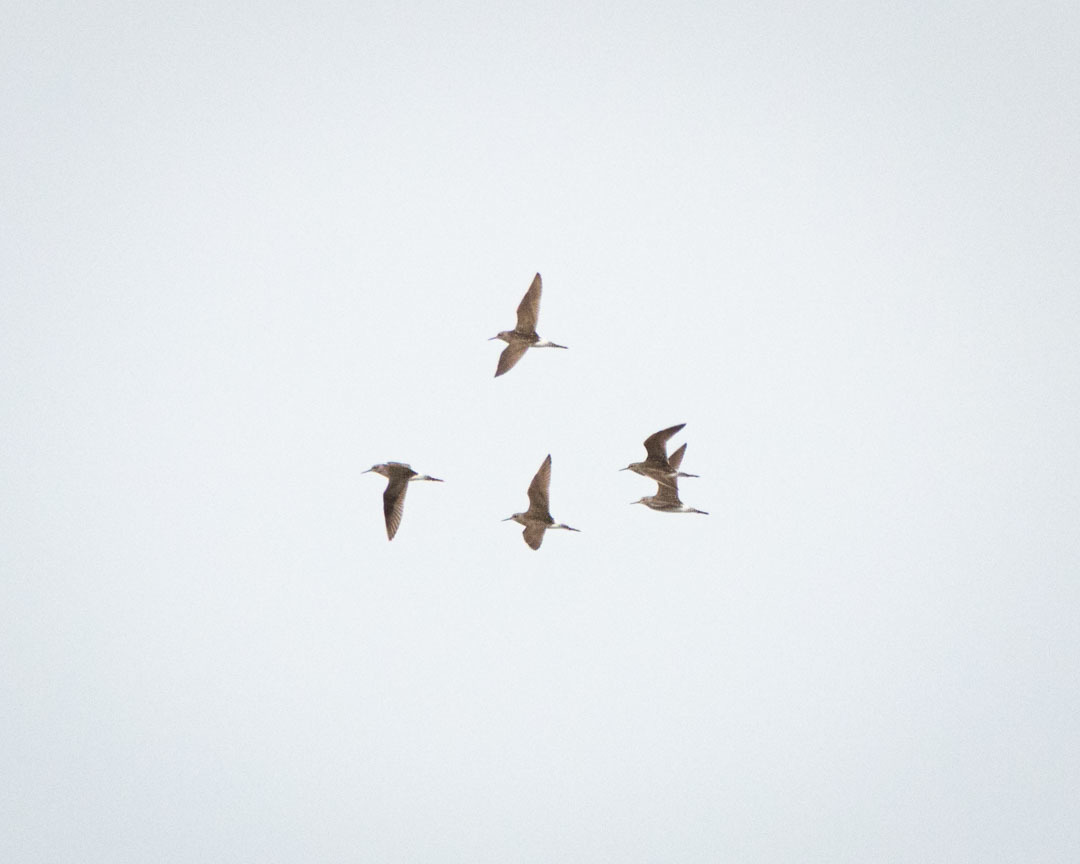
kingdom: Animalia
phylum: Chordata
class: Aves
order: Charadriiformes
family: Scolopacidae
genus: Tringa
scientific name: Tringa glareola
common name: Wood sandpiper
